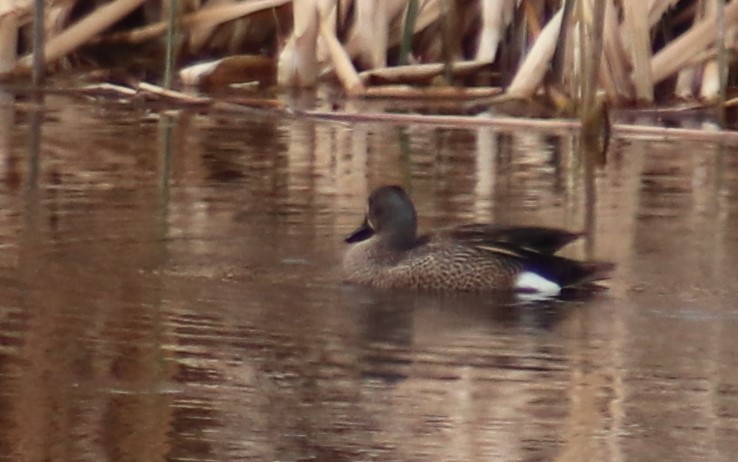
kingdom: Animalia
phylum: Chordata
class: Aves
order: Anseriformes
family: Anatidae
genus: Spatula
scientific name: Spatula discors
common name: Blue-winged teal
